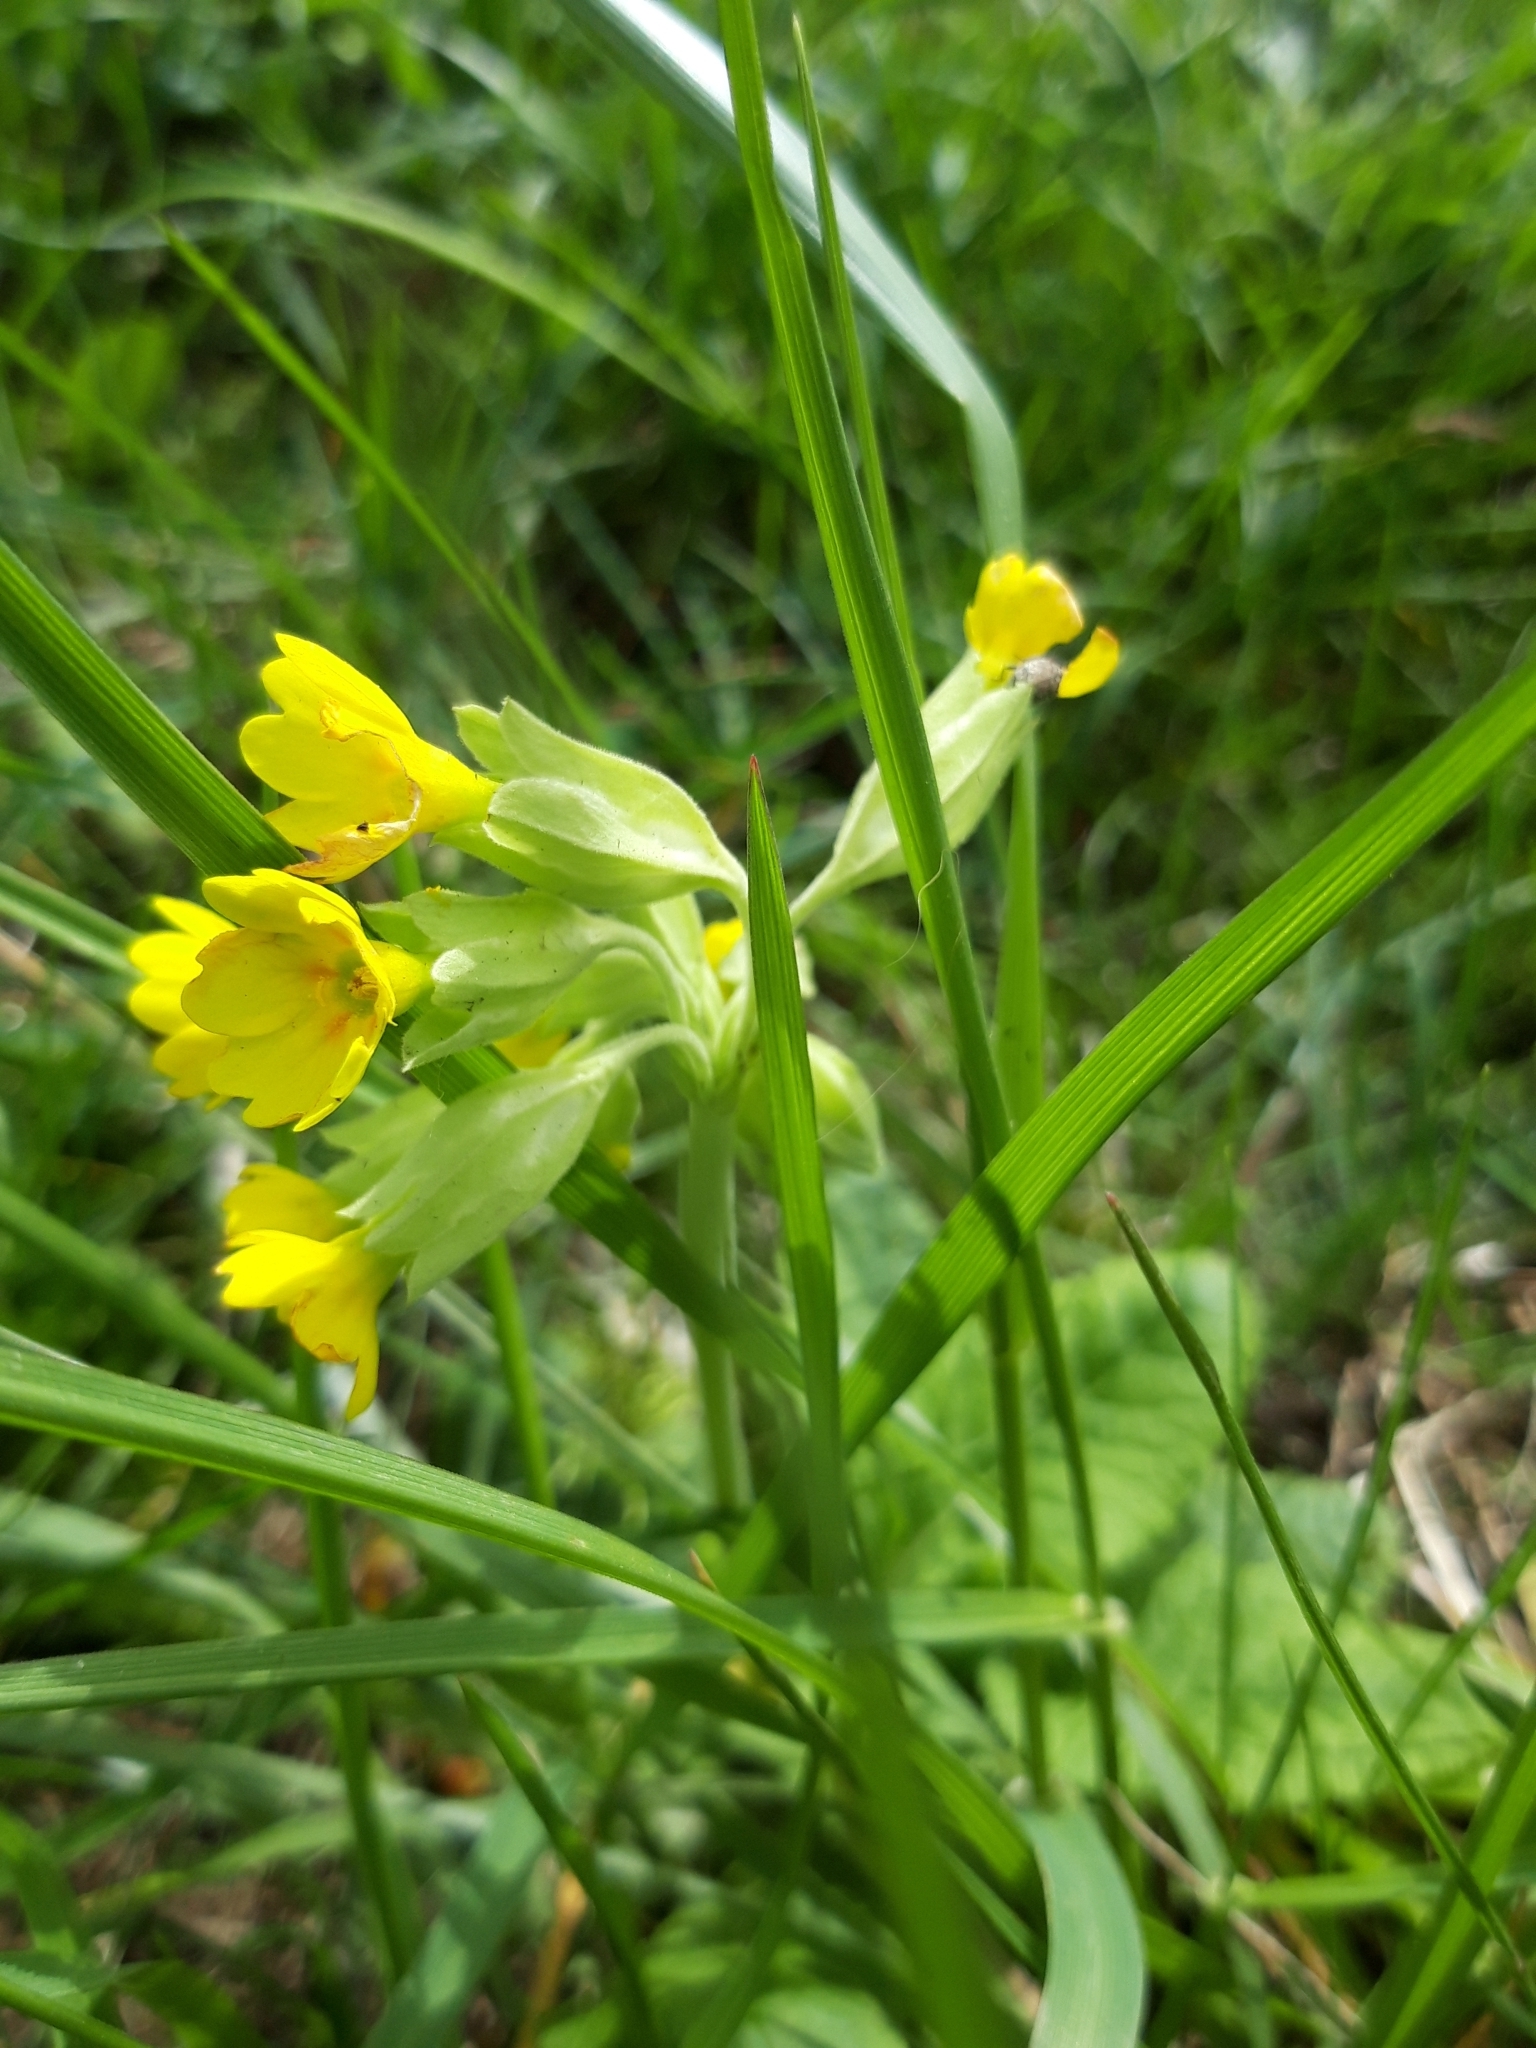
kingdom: Plantae
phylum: Tracheophyta
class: Magnoliopsida
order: Ericales
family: Primulaceae
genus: Primula
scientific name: Primula veris
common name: Cowslip
